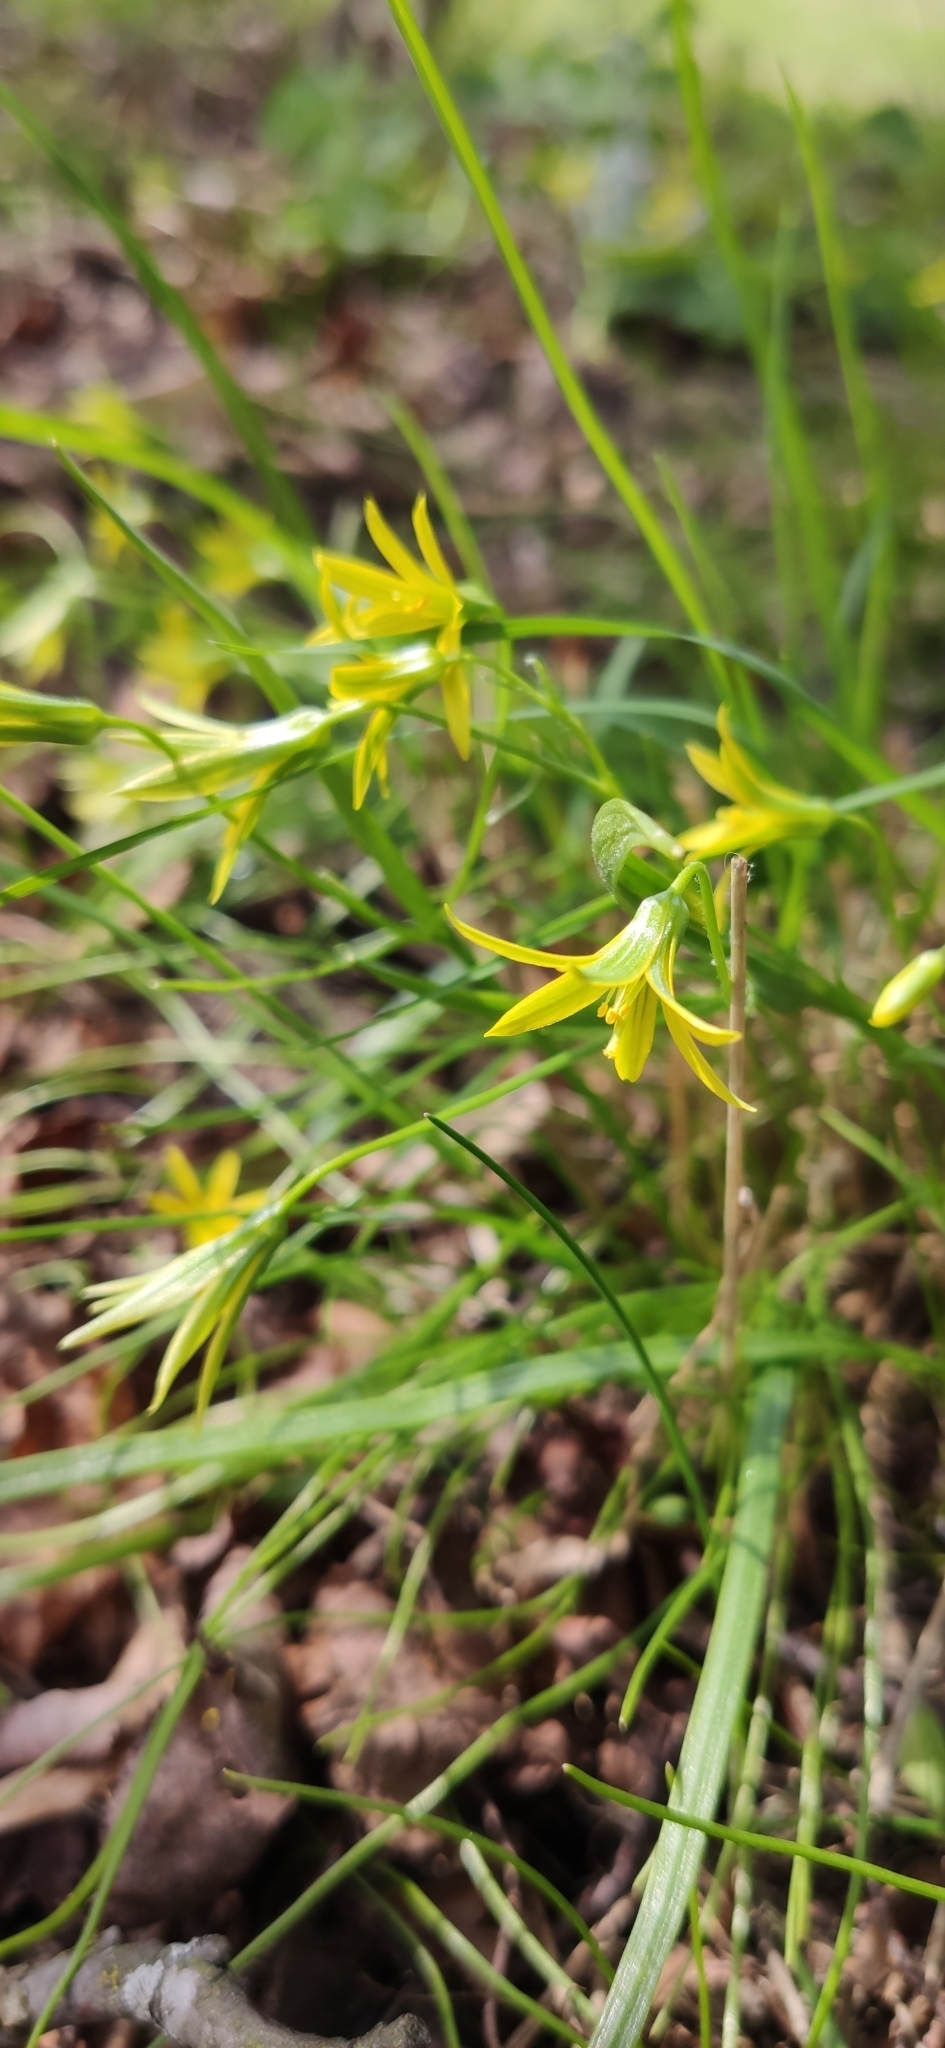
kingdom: Plantae
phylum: Tracheophyta
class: Liliopsida
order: Liliales
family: Liliaceae
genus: Gagea
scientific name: Gagea minima
